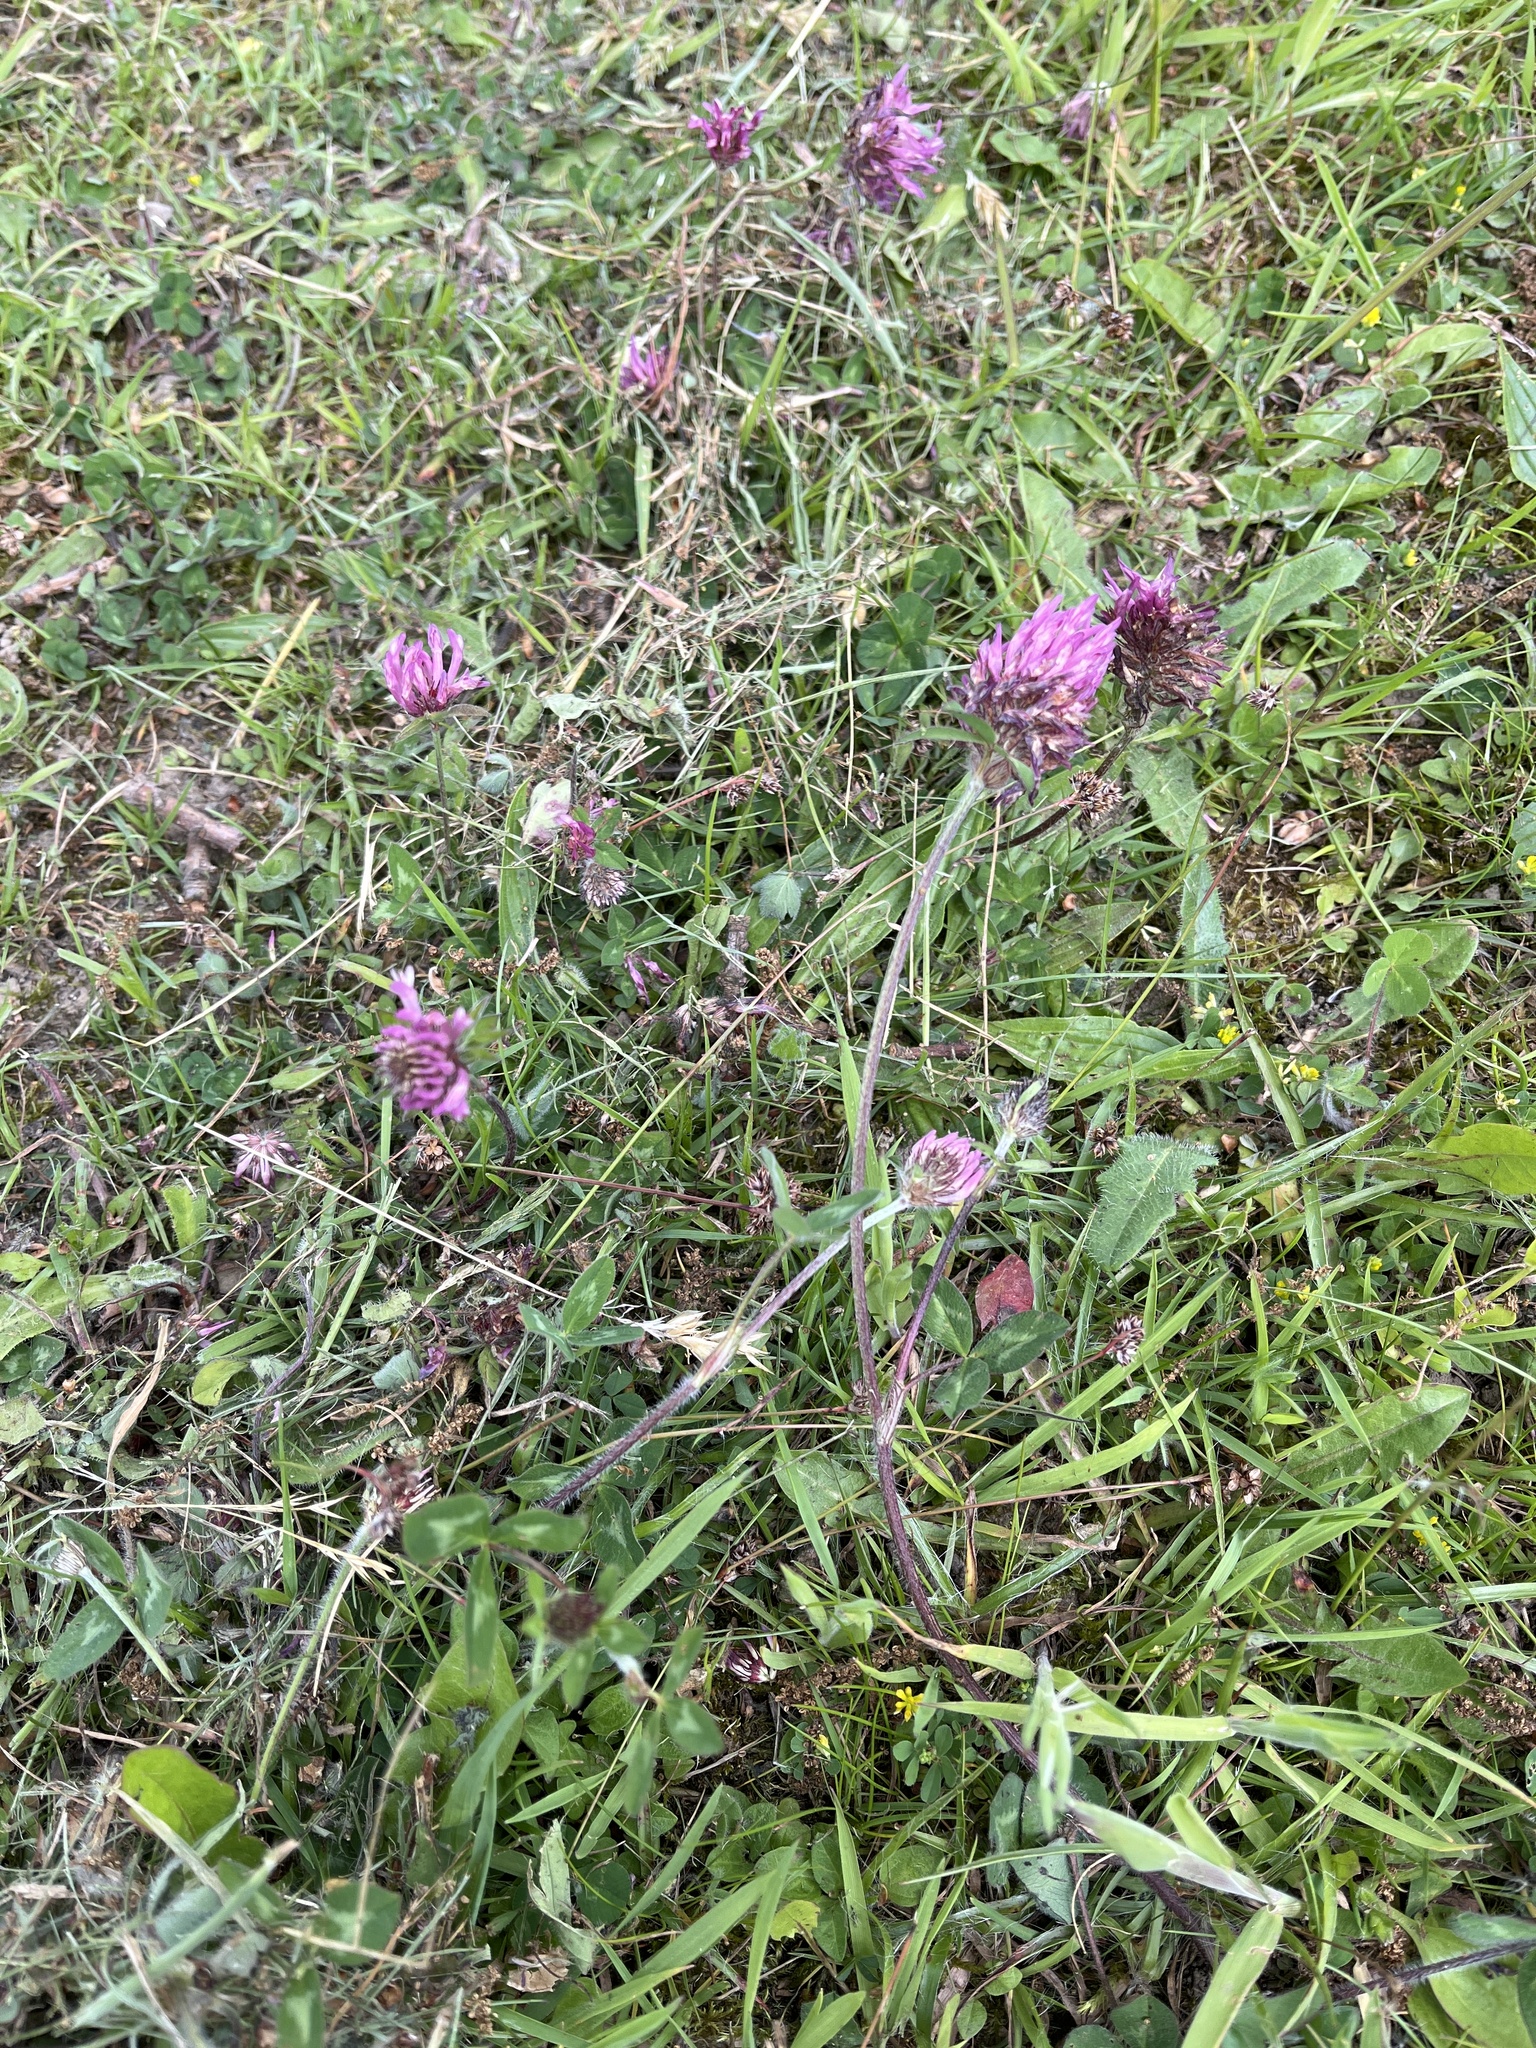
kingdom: Plantae
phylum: Tracheophyta
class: Magnoliopsida
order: Fabales
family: Fabaceae
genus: Trifolium
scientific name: Trifolium pratense
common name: Red clover
